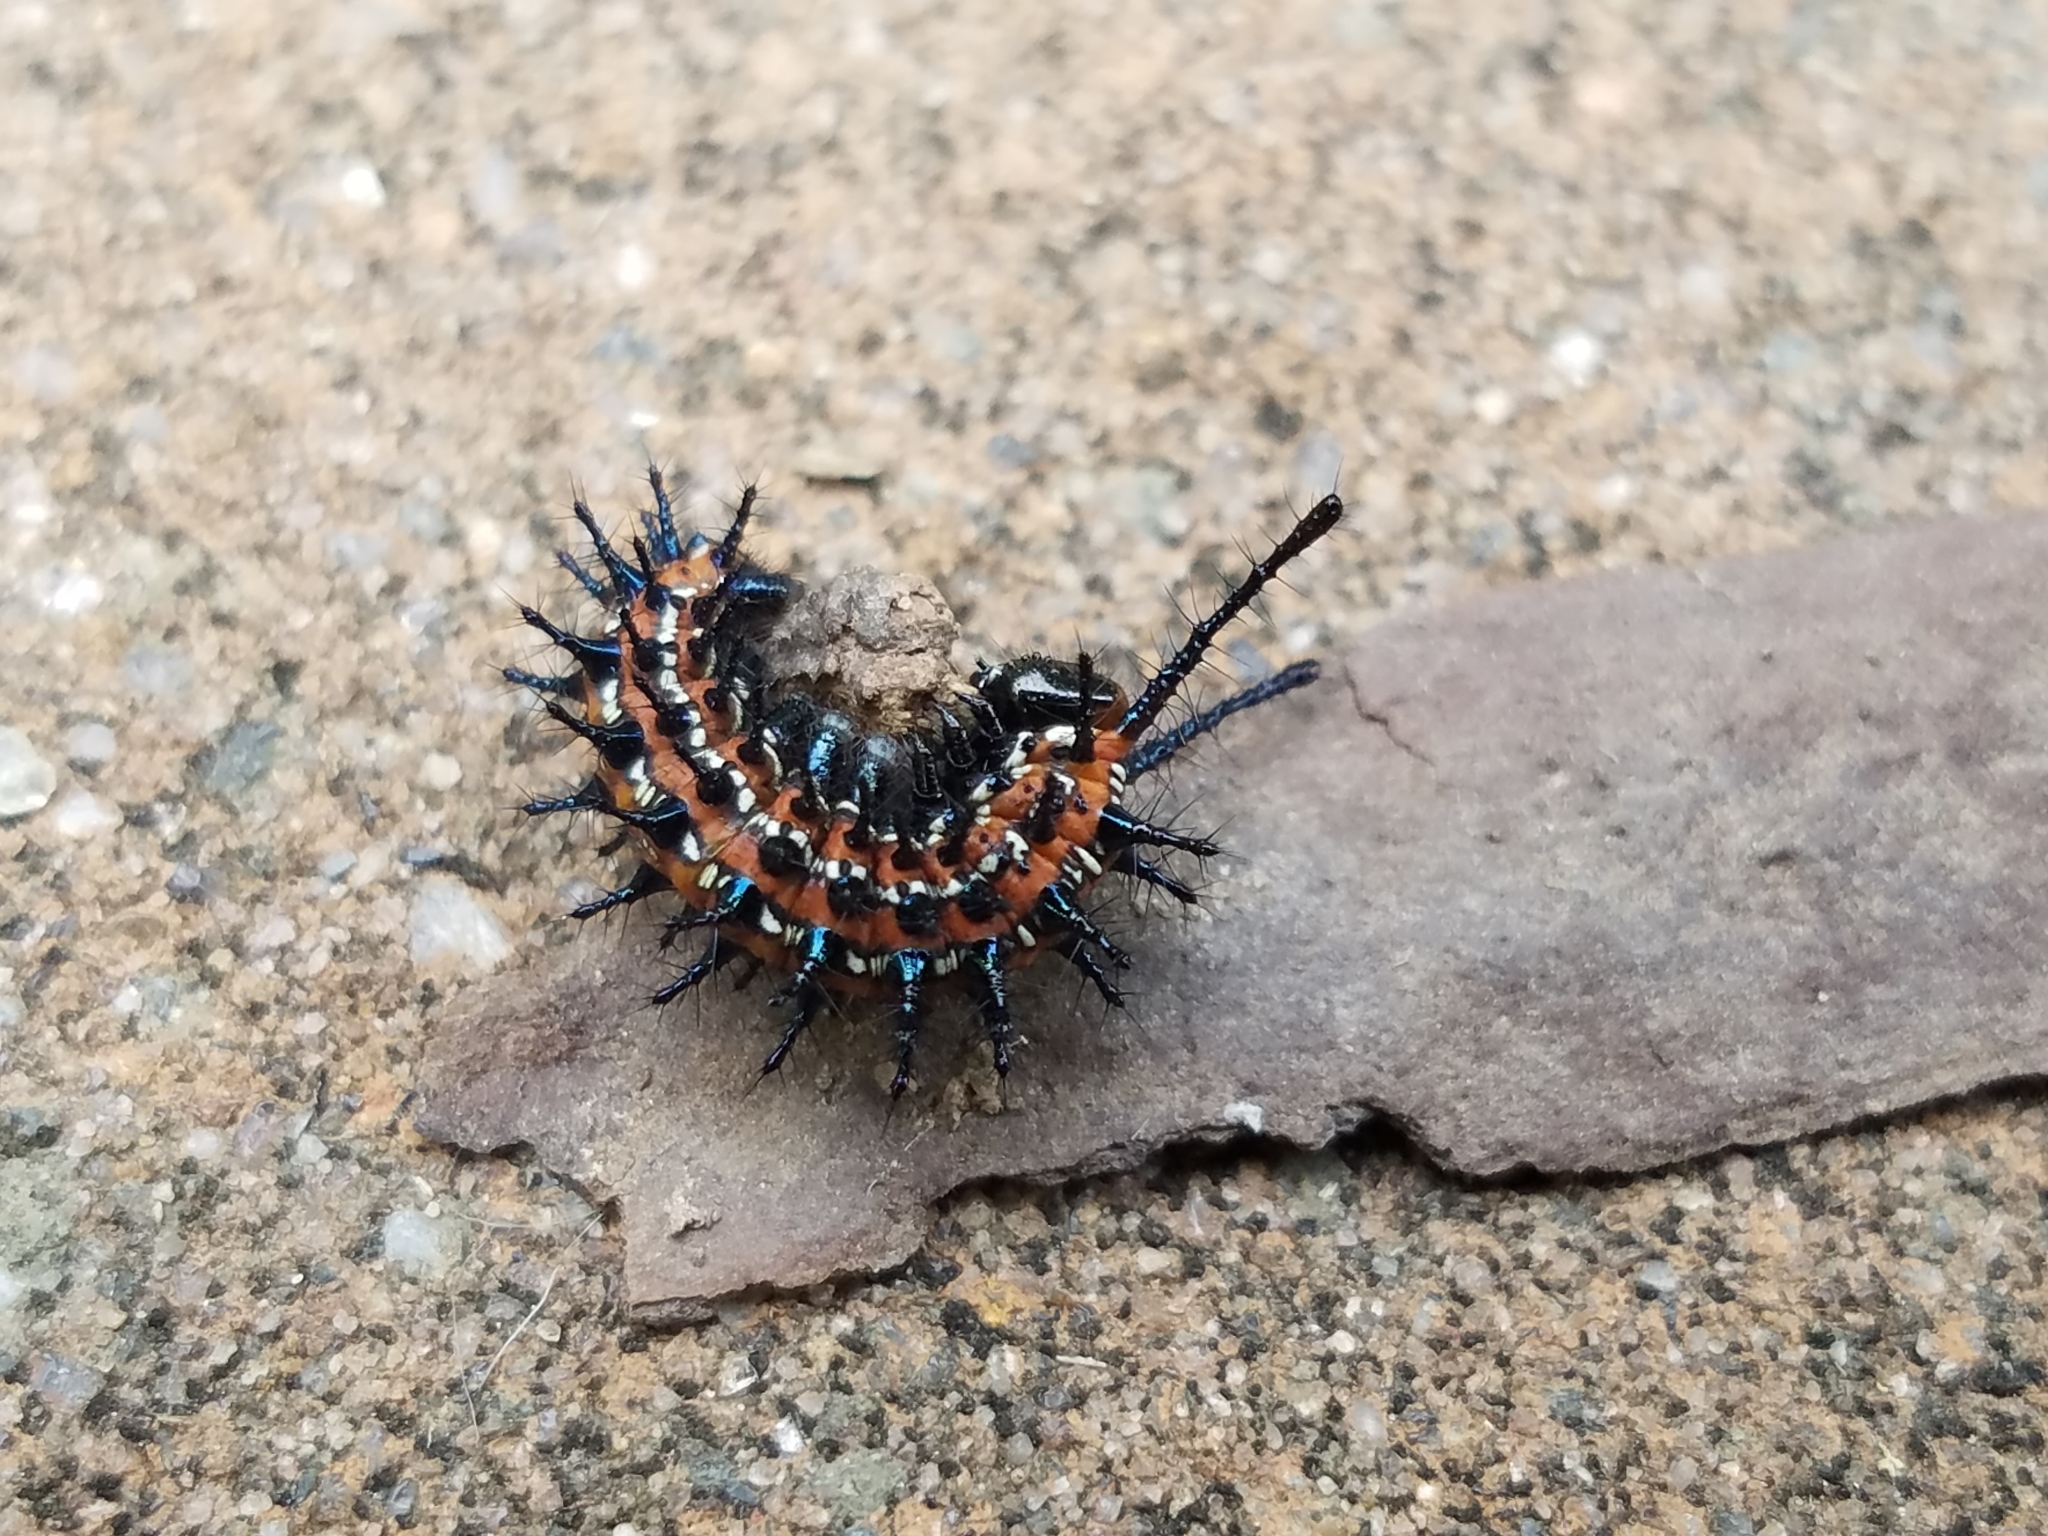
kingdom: Animalia
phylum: Arthropoda
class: Insecta
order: Lepidoptera
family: Nymphalidae
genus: Euptoieta
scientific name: Euptoieta claudia
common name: Variegated fritillary
